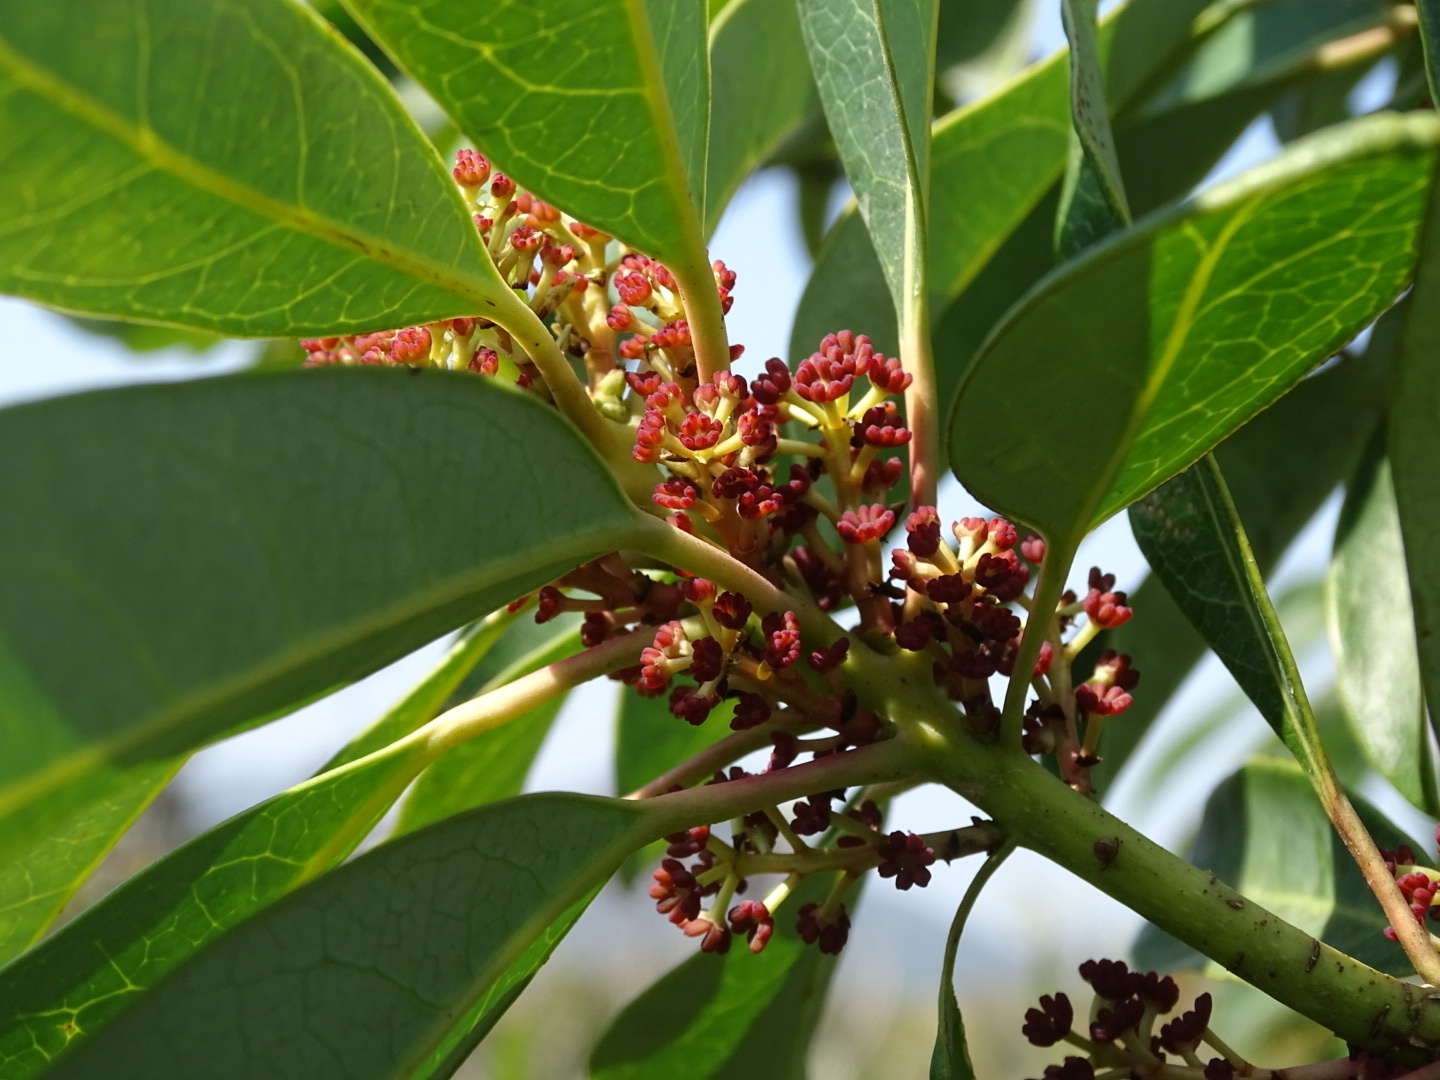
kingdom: Plantae
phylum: Tracheophyta
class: Magnoliopsida
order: Saxifragales
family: Daphniphyllaceae
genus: Daphniphyllum
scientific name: Daphniphyllum pentandrum
